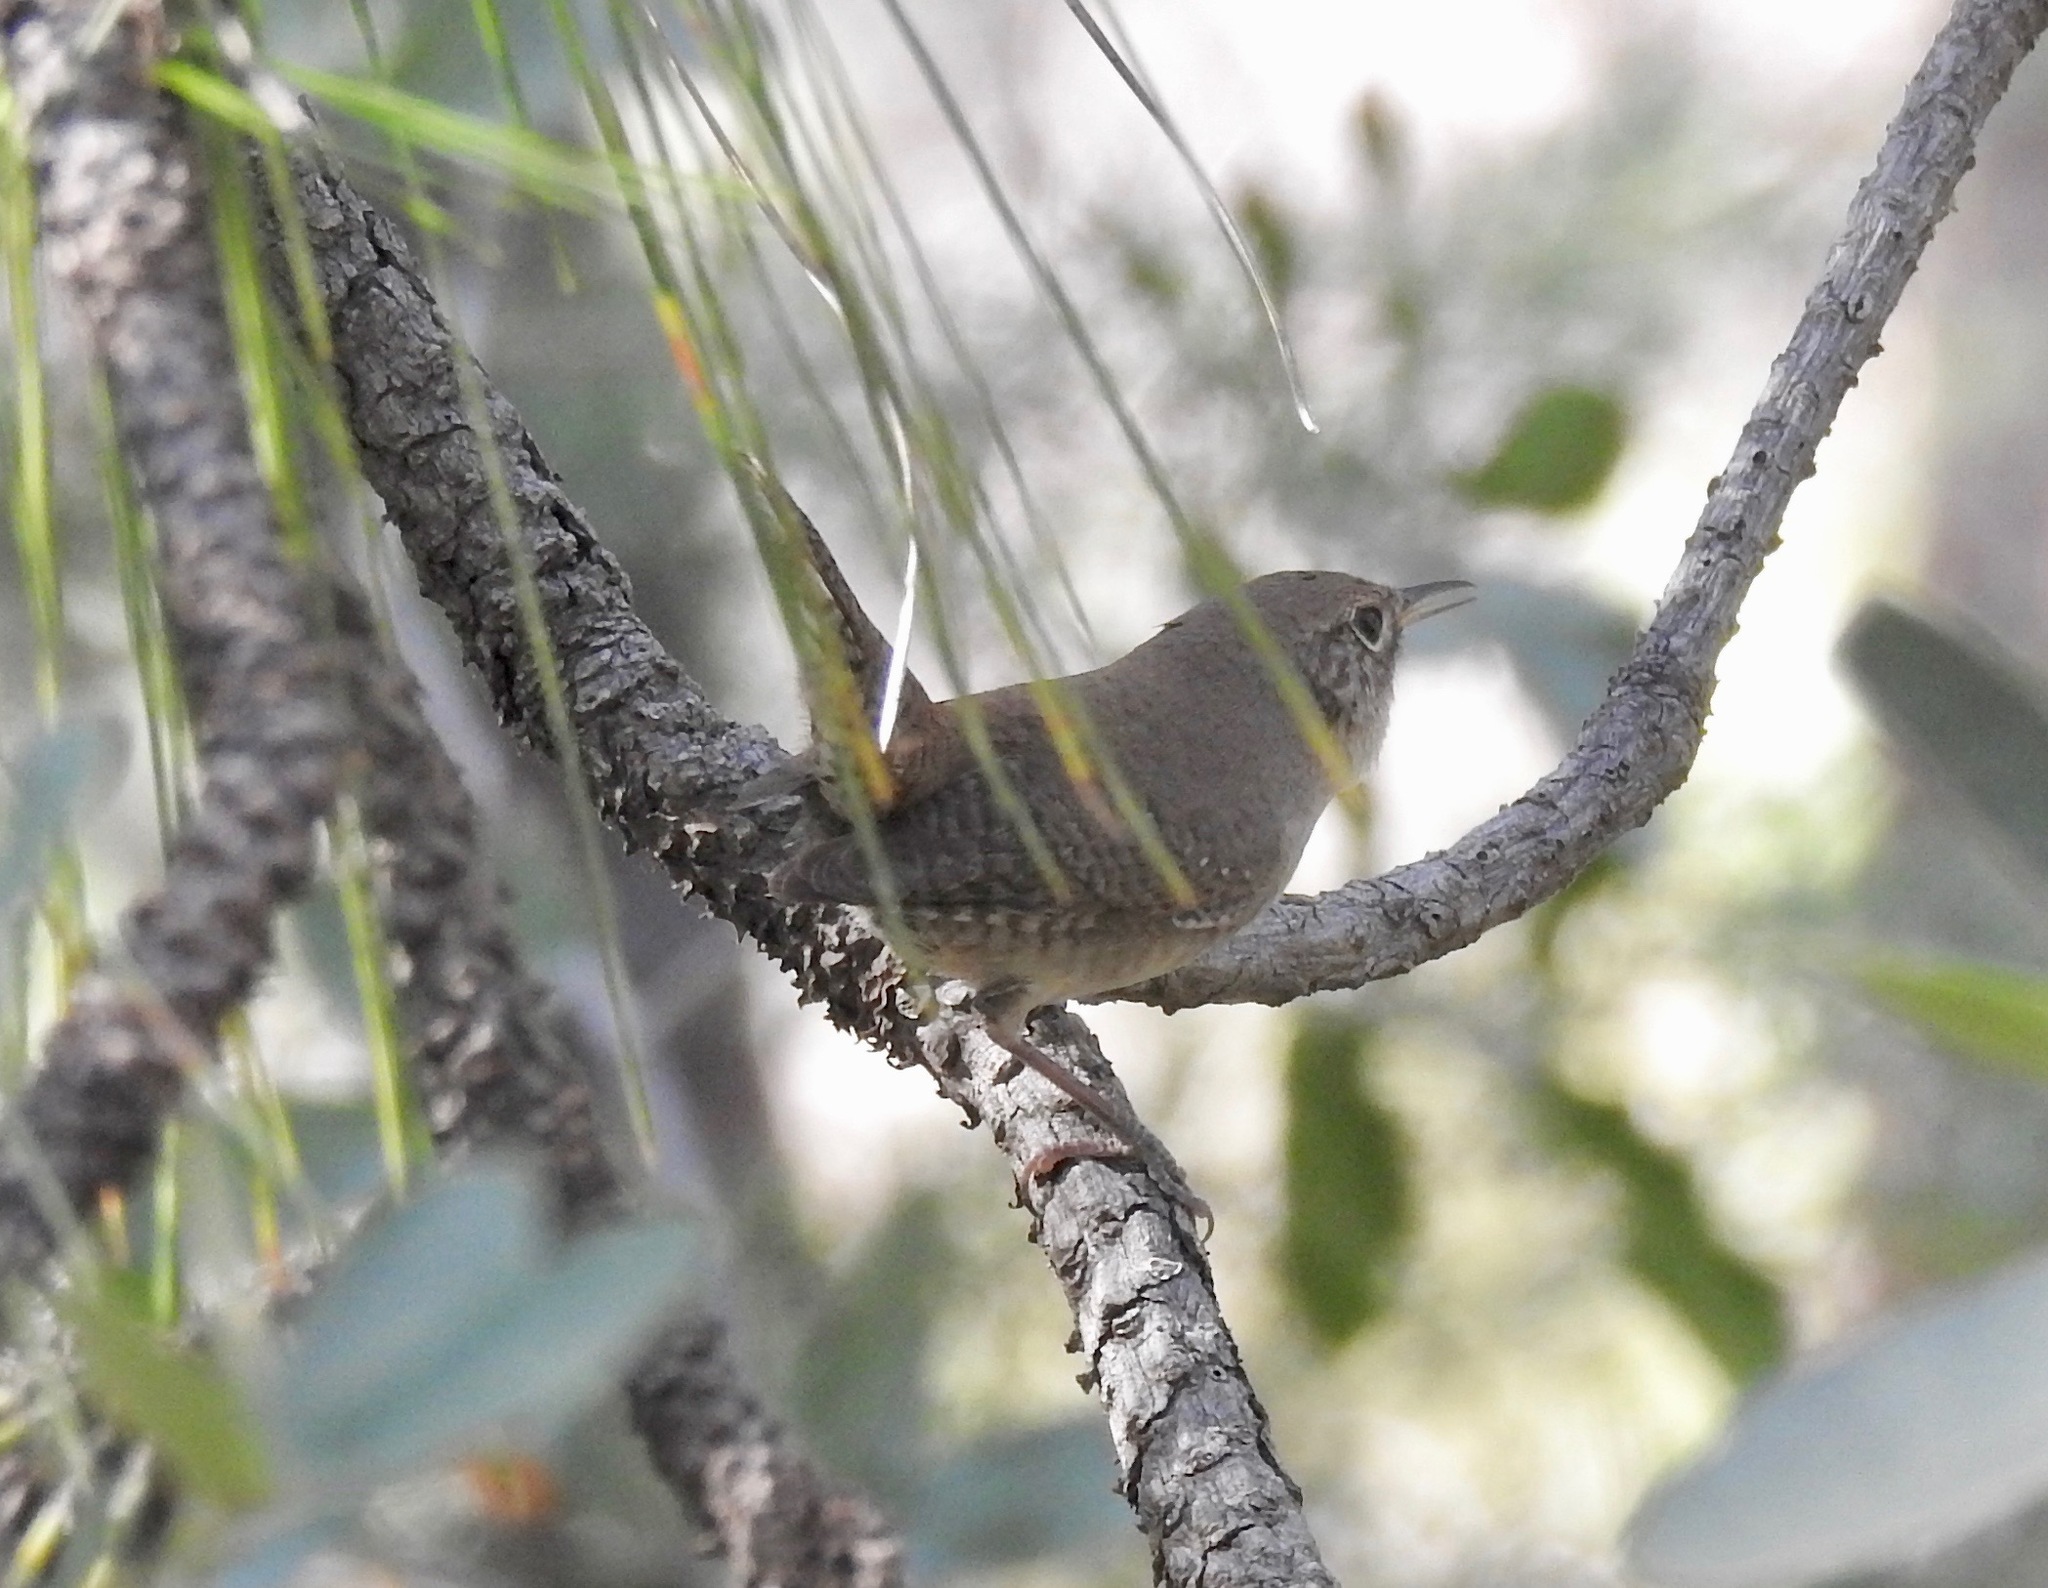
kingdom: Animalia
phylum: Chordata
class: Aves
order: Passeriformes
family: Troglodytidae
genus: Troglodytes
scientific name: Troglodytes aedon
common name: House wren
